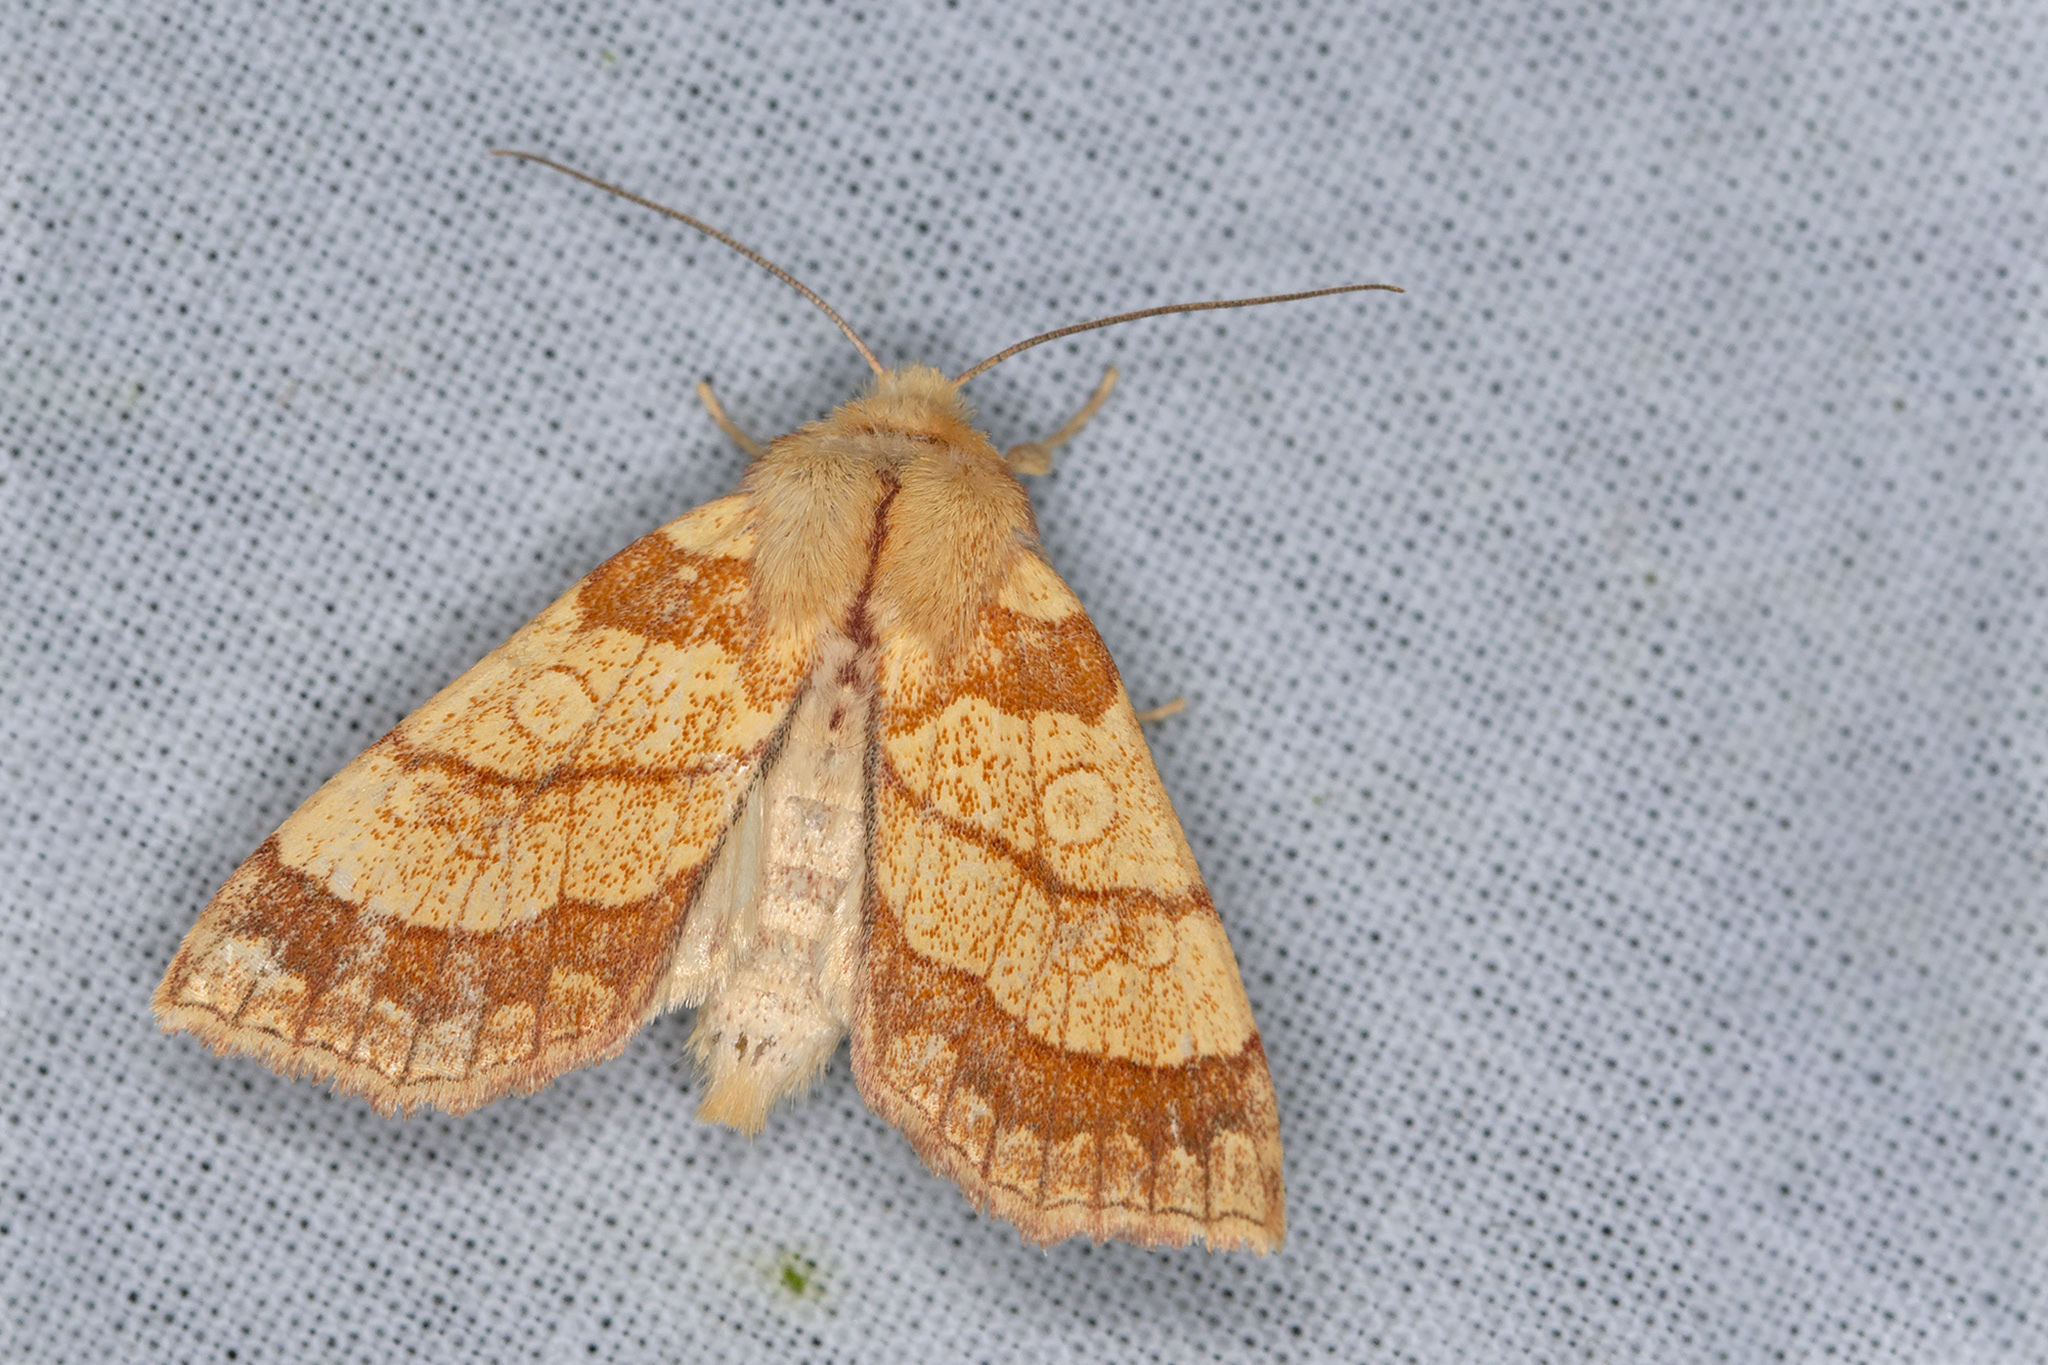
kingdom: Animalia
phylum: Arthropoda
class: Insecta
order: Lepidoptera
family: Noctuidae
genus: Tiliacea
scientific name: Tiliacea citrago
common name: Orange sallow
